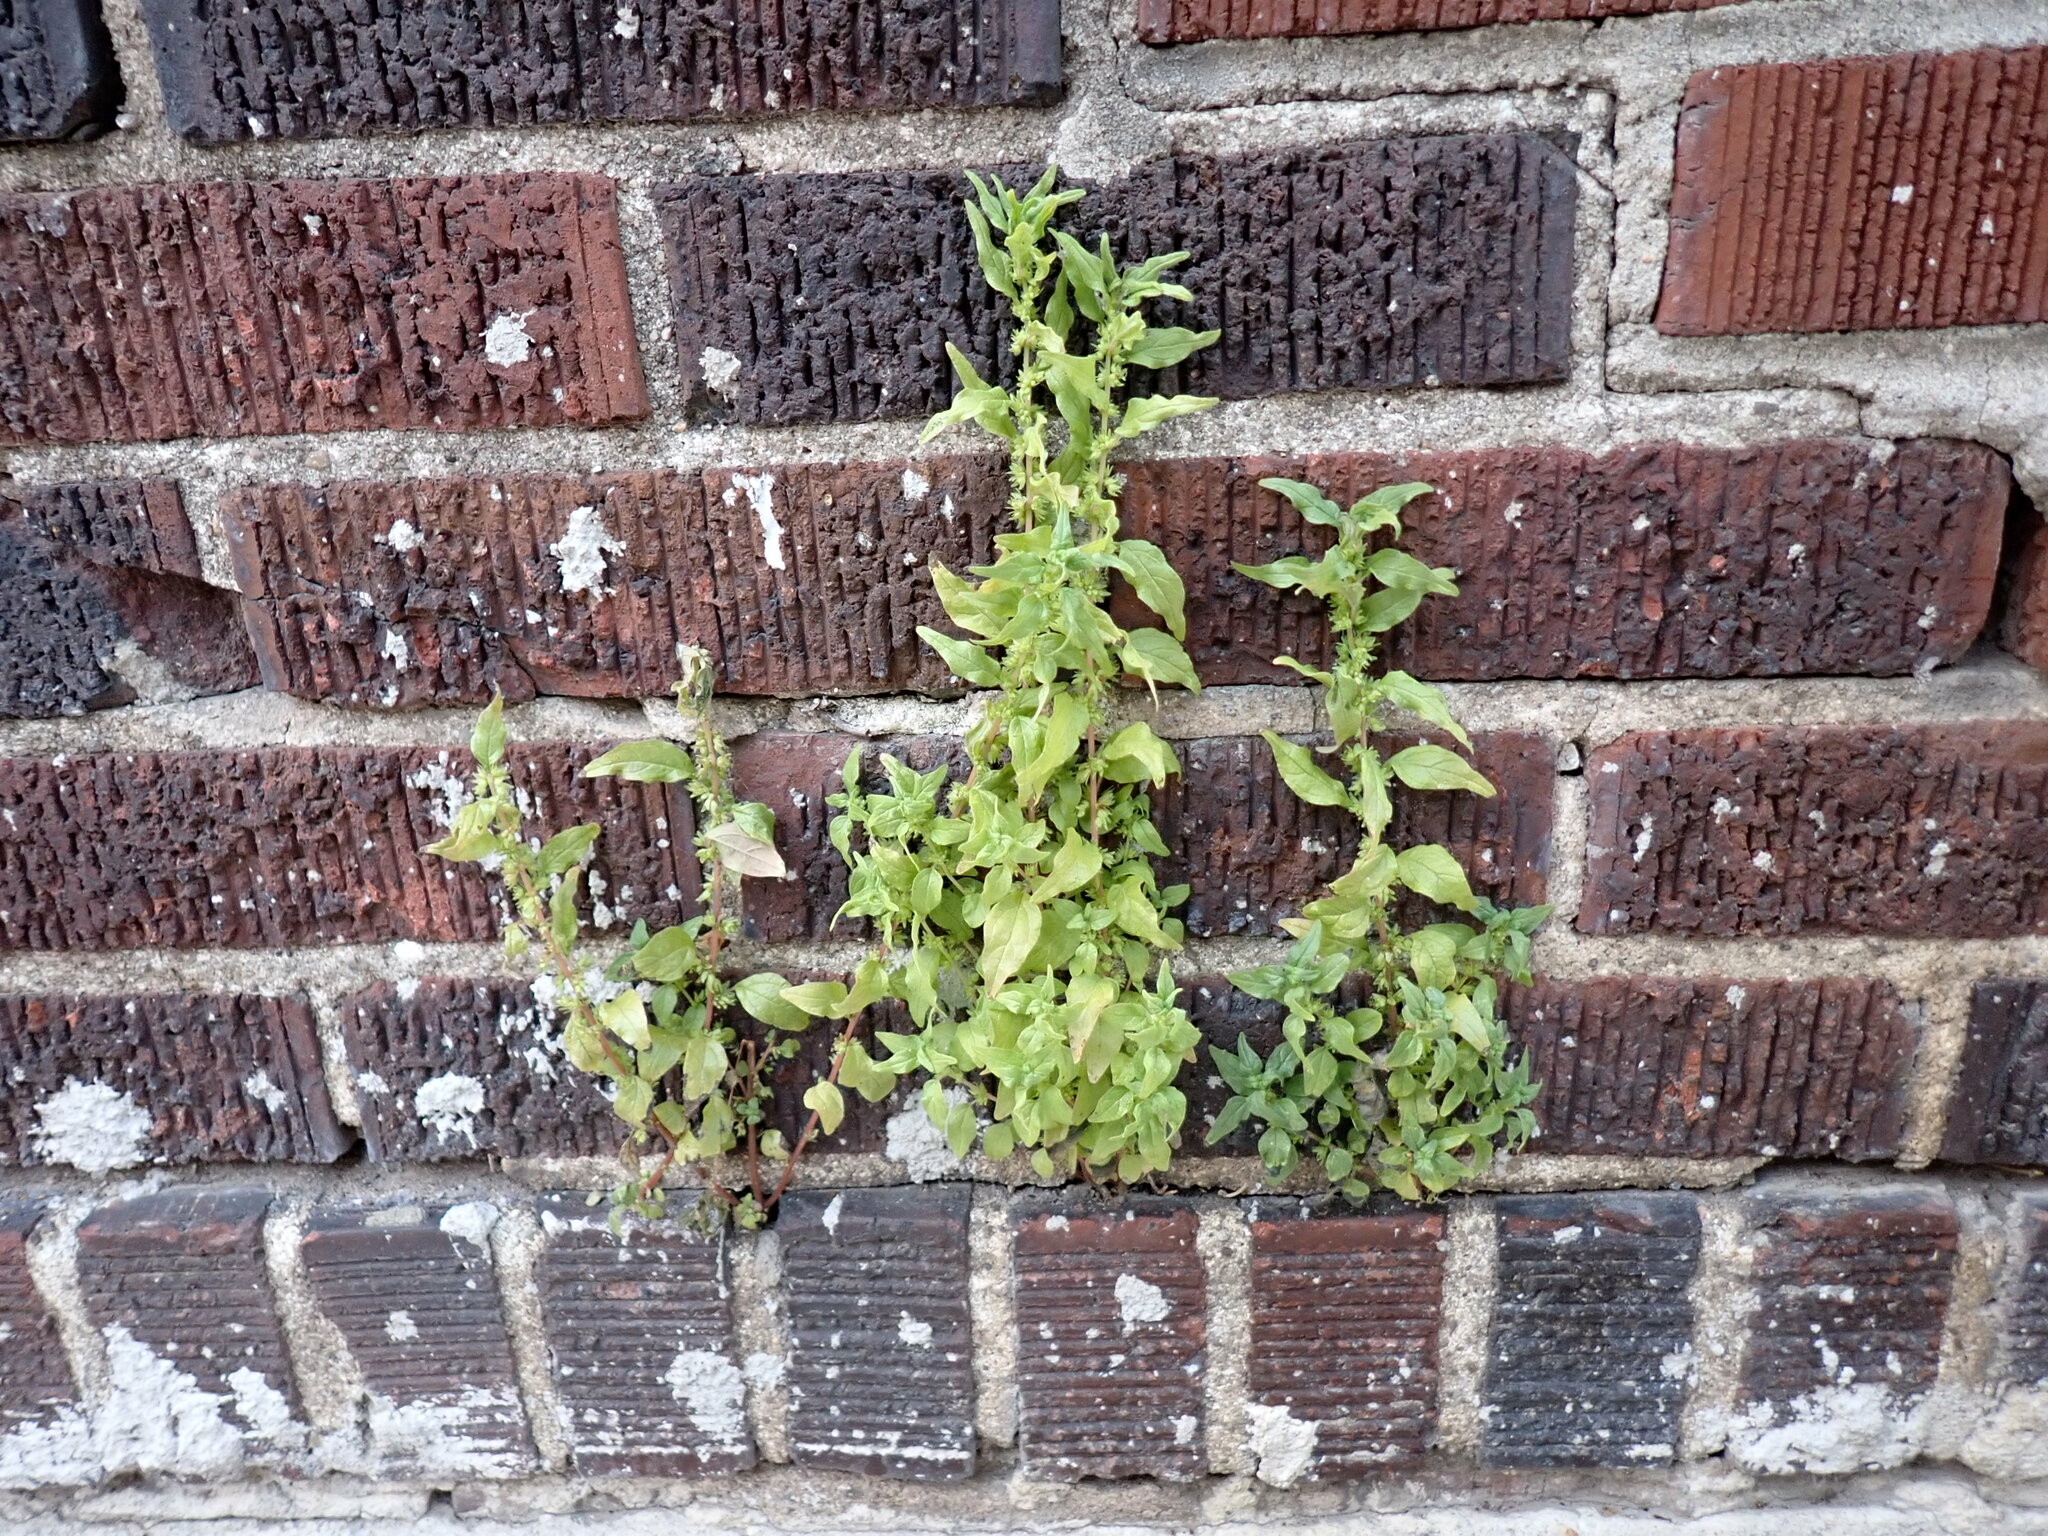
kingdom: Plantae
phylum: Tracheophyta
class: Magnoliopsida
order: Rosales
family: Urticaceae
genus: Parietaria
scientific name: Parietaria pensylvanica
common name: Pennsylvania pellitory
